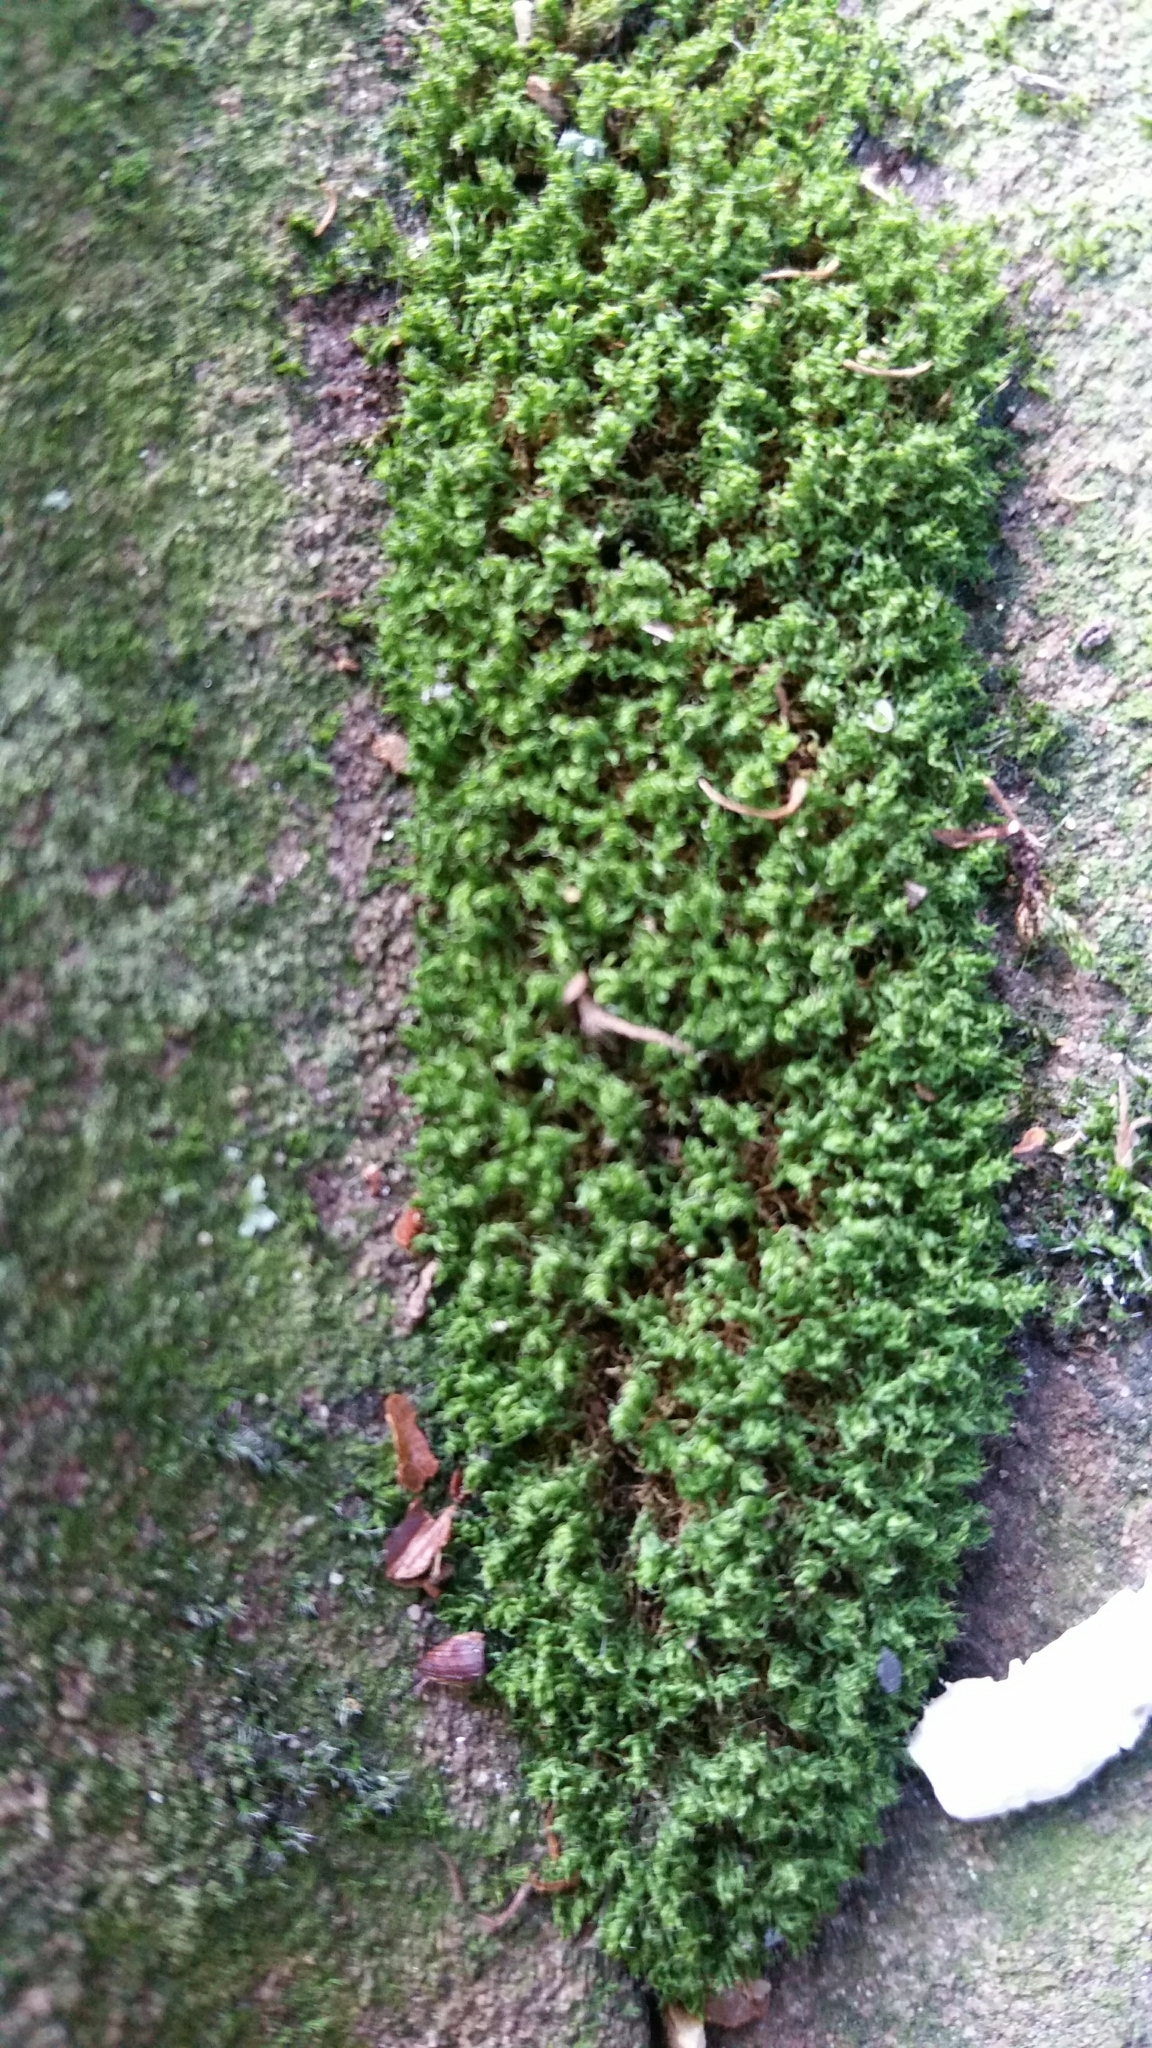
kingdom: Plantae
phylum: Bryophyta
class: Bryopsida
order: Bryales
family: Bryaceae
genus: Rosulabryum
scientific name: Rosulabryum capillare
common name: Capillary thread-moss
